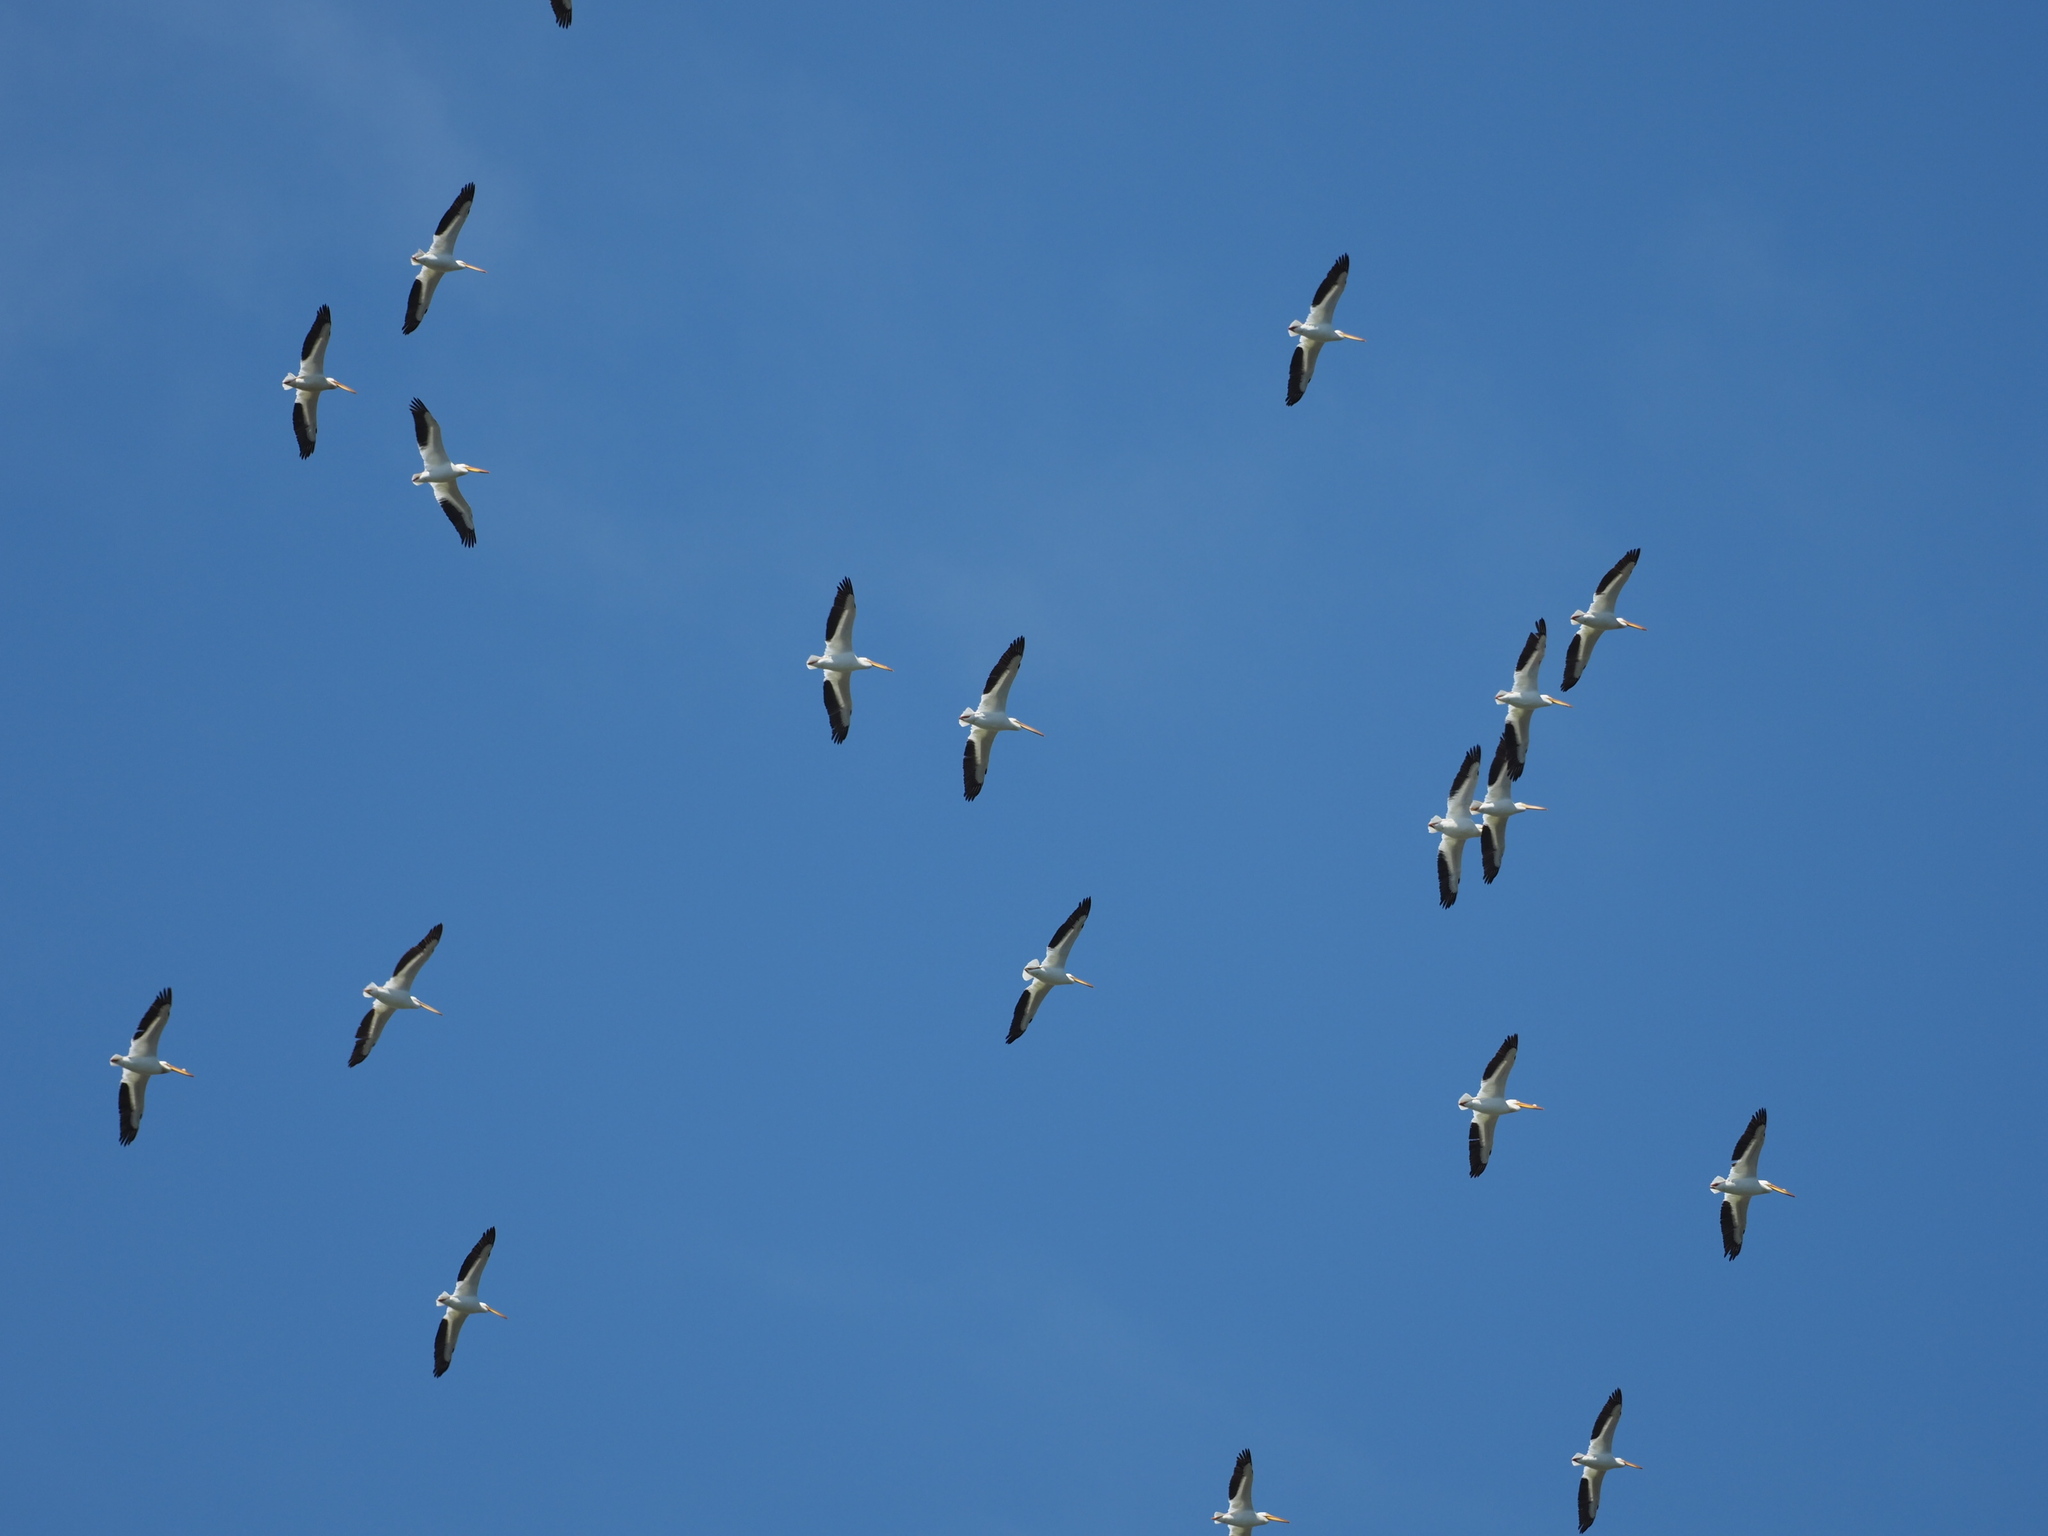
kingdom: Animalia
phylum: Chordata
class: Aves
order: Pelecaniformes
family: Pelecanidae
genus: Pelecanus
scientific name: Pelecanus erythrorhynchos
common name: American white pelican
